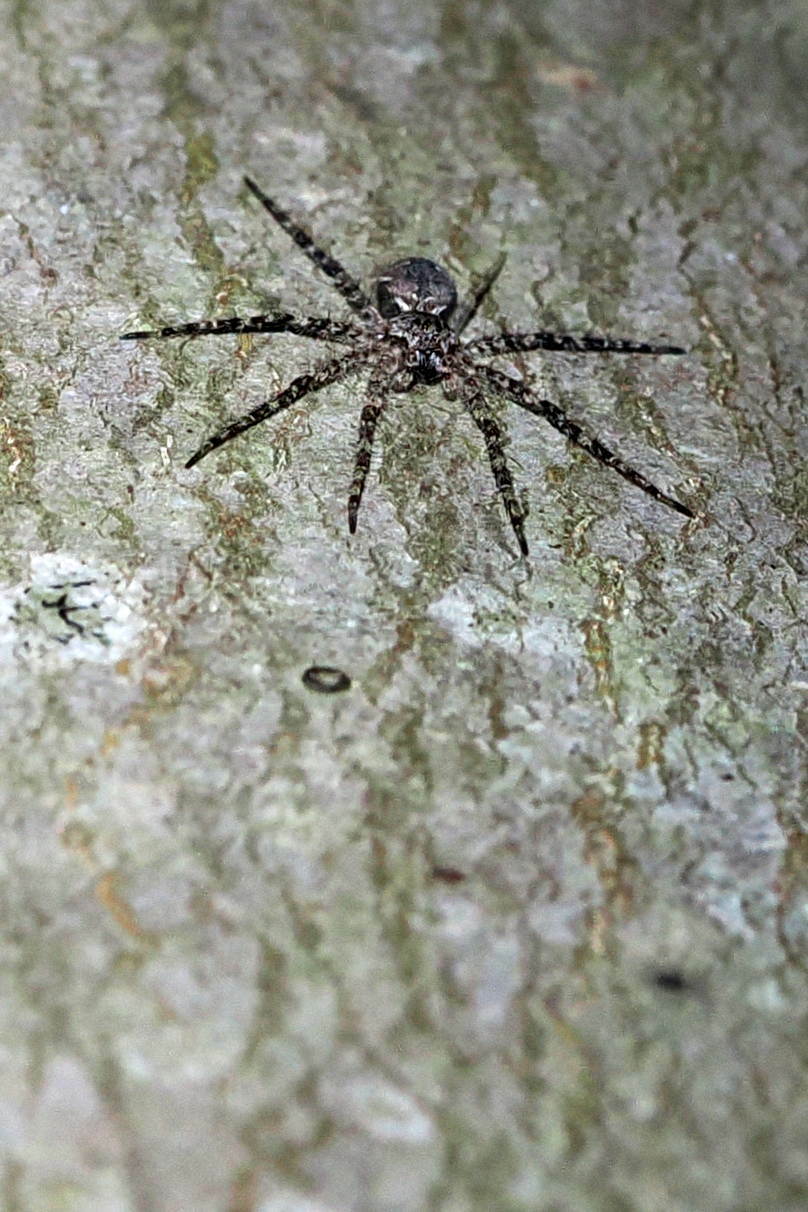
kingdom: Animalia
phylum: Arthropoda
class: Arachnida
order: Araneae
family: Pisauridae
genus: Dolomedes
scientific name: Dolomedes albineus
